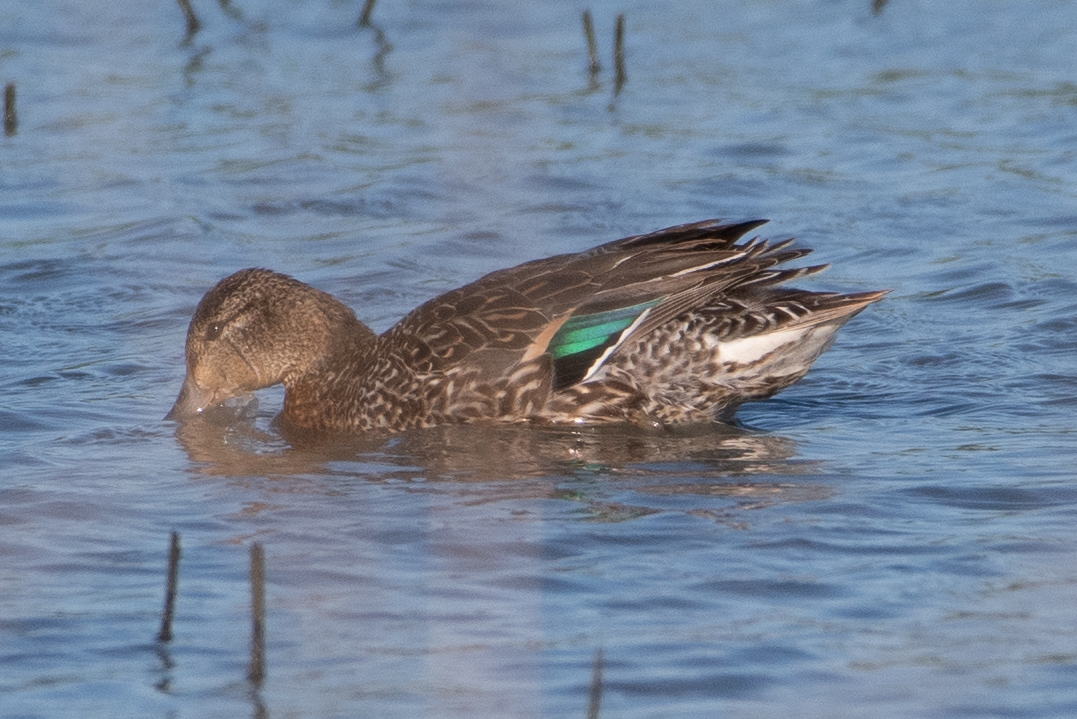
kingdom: Animalia
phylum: Chordata
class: Aves
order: Anseriformes
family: Anatidae
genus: Anas
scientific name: Anas crecca
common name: Eurasian teal
